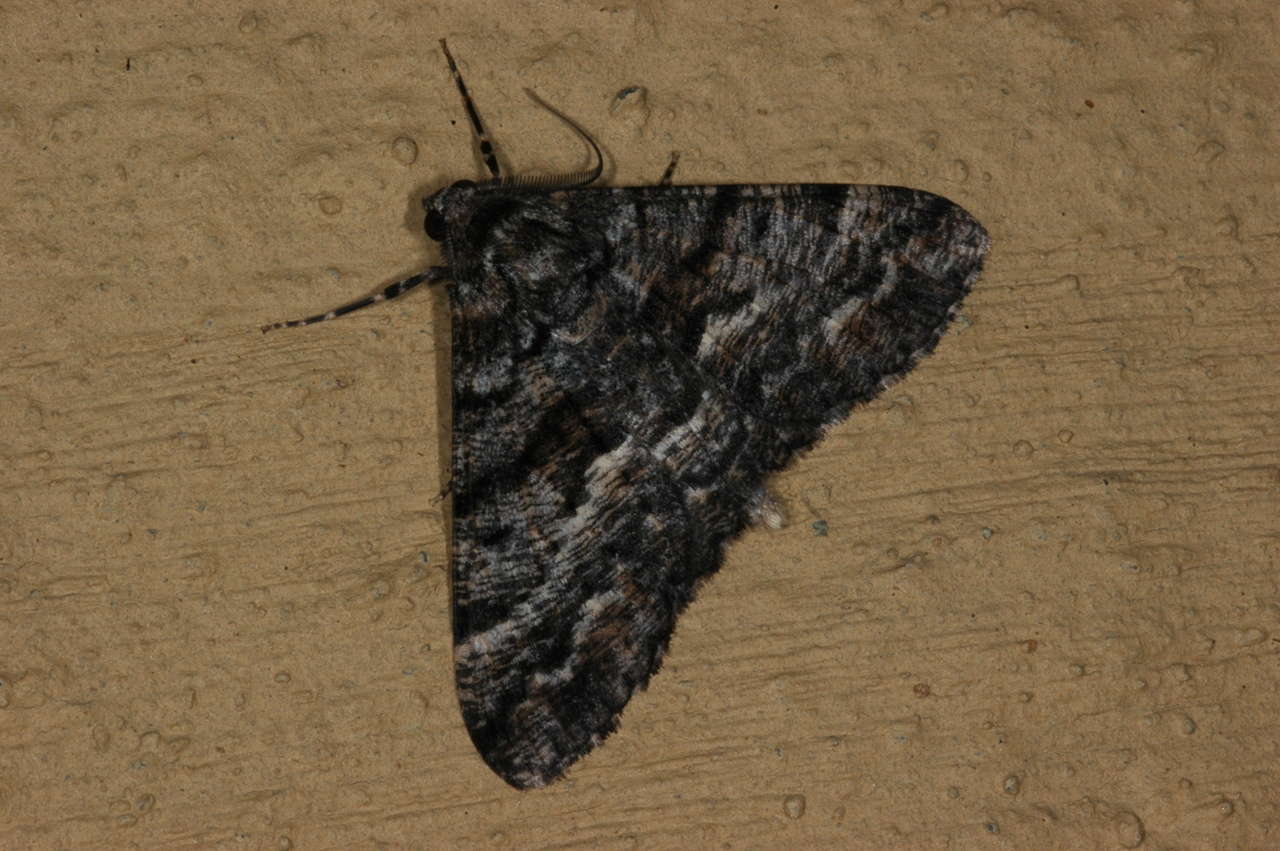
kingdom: Animalia
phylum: Arthropoda
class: Insecta
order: Lepidoptera
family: Geometridae
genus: Gastrinodes
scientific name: Gastrinodes argoplaca
